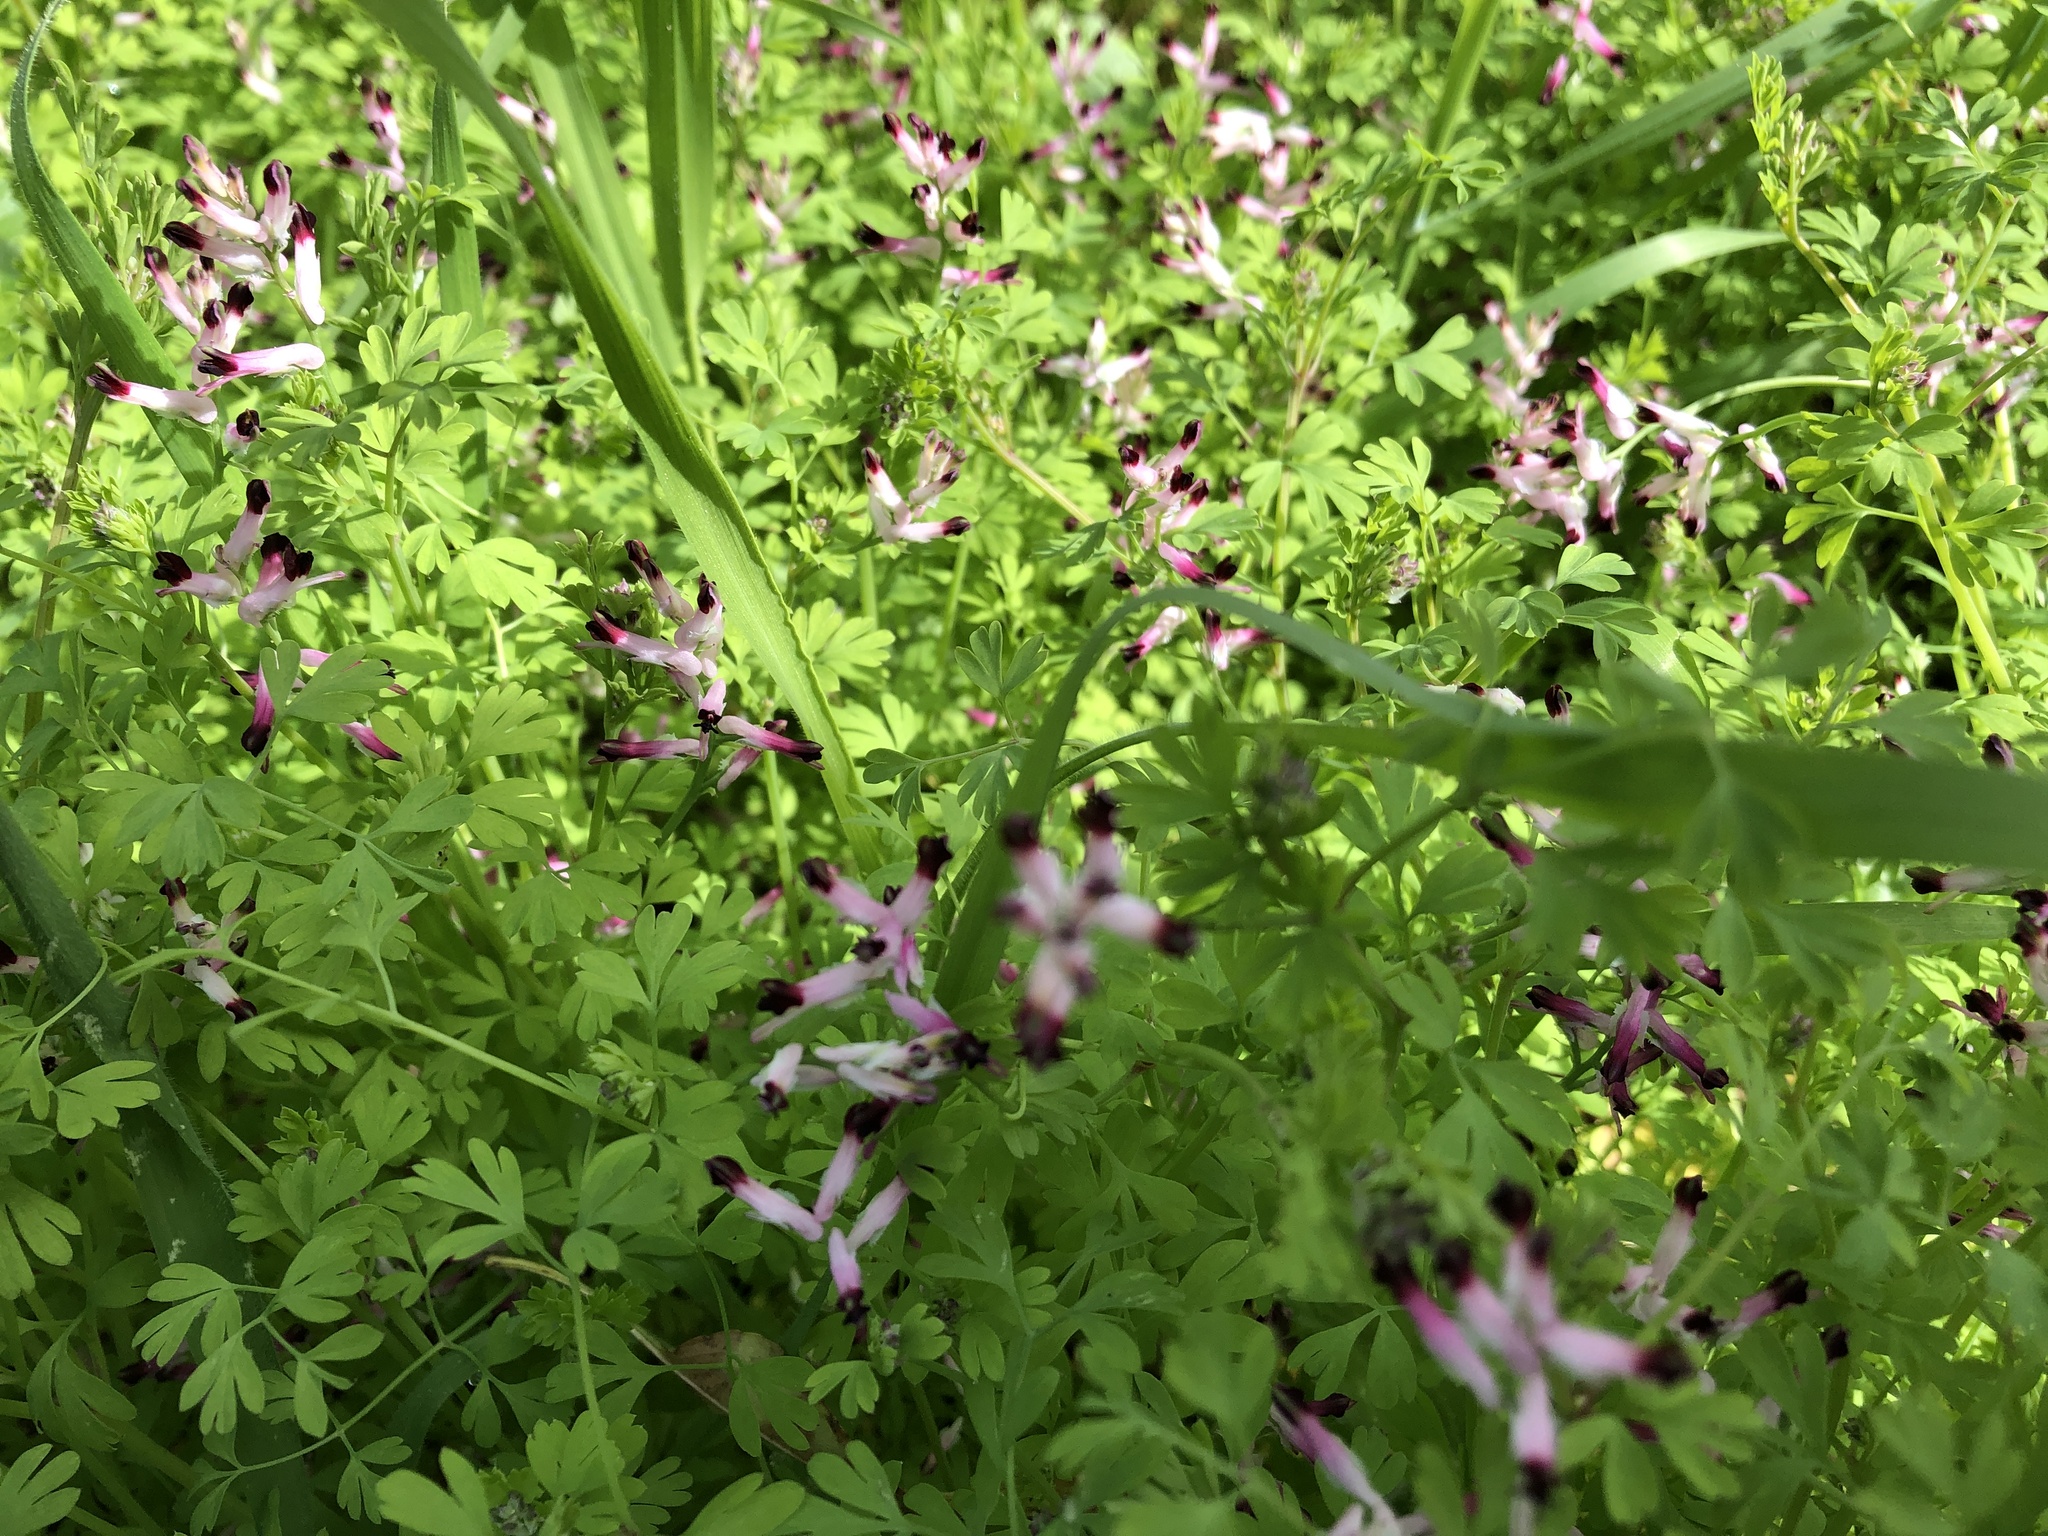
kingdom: Plantae
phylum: Tracheophyta
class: Magnoliopsida
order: Ranunculales
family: Papaveraceae
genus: Fumaria
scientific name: Fumaria muralis
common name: Common ramping-fumitory
